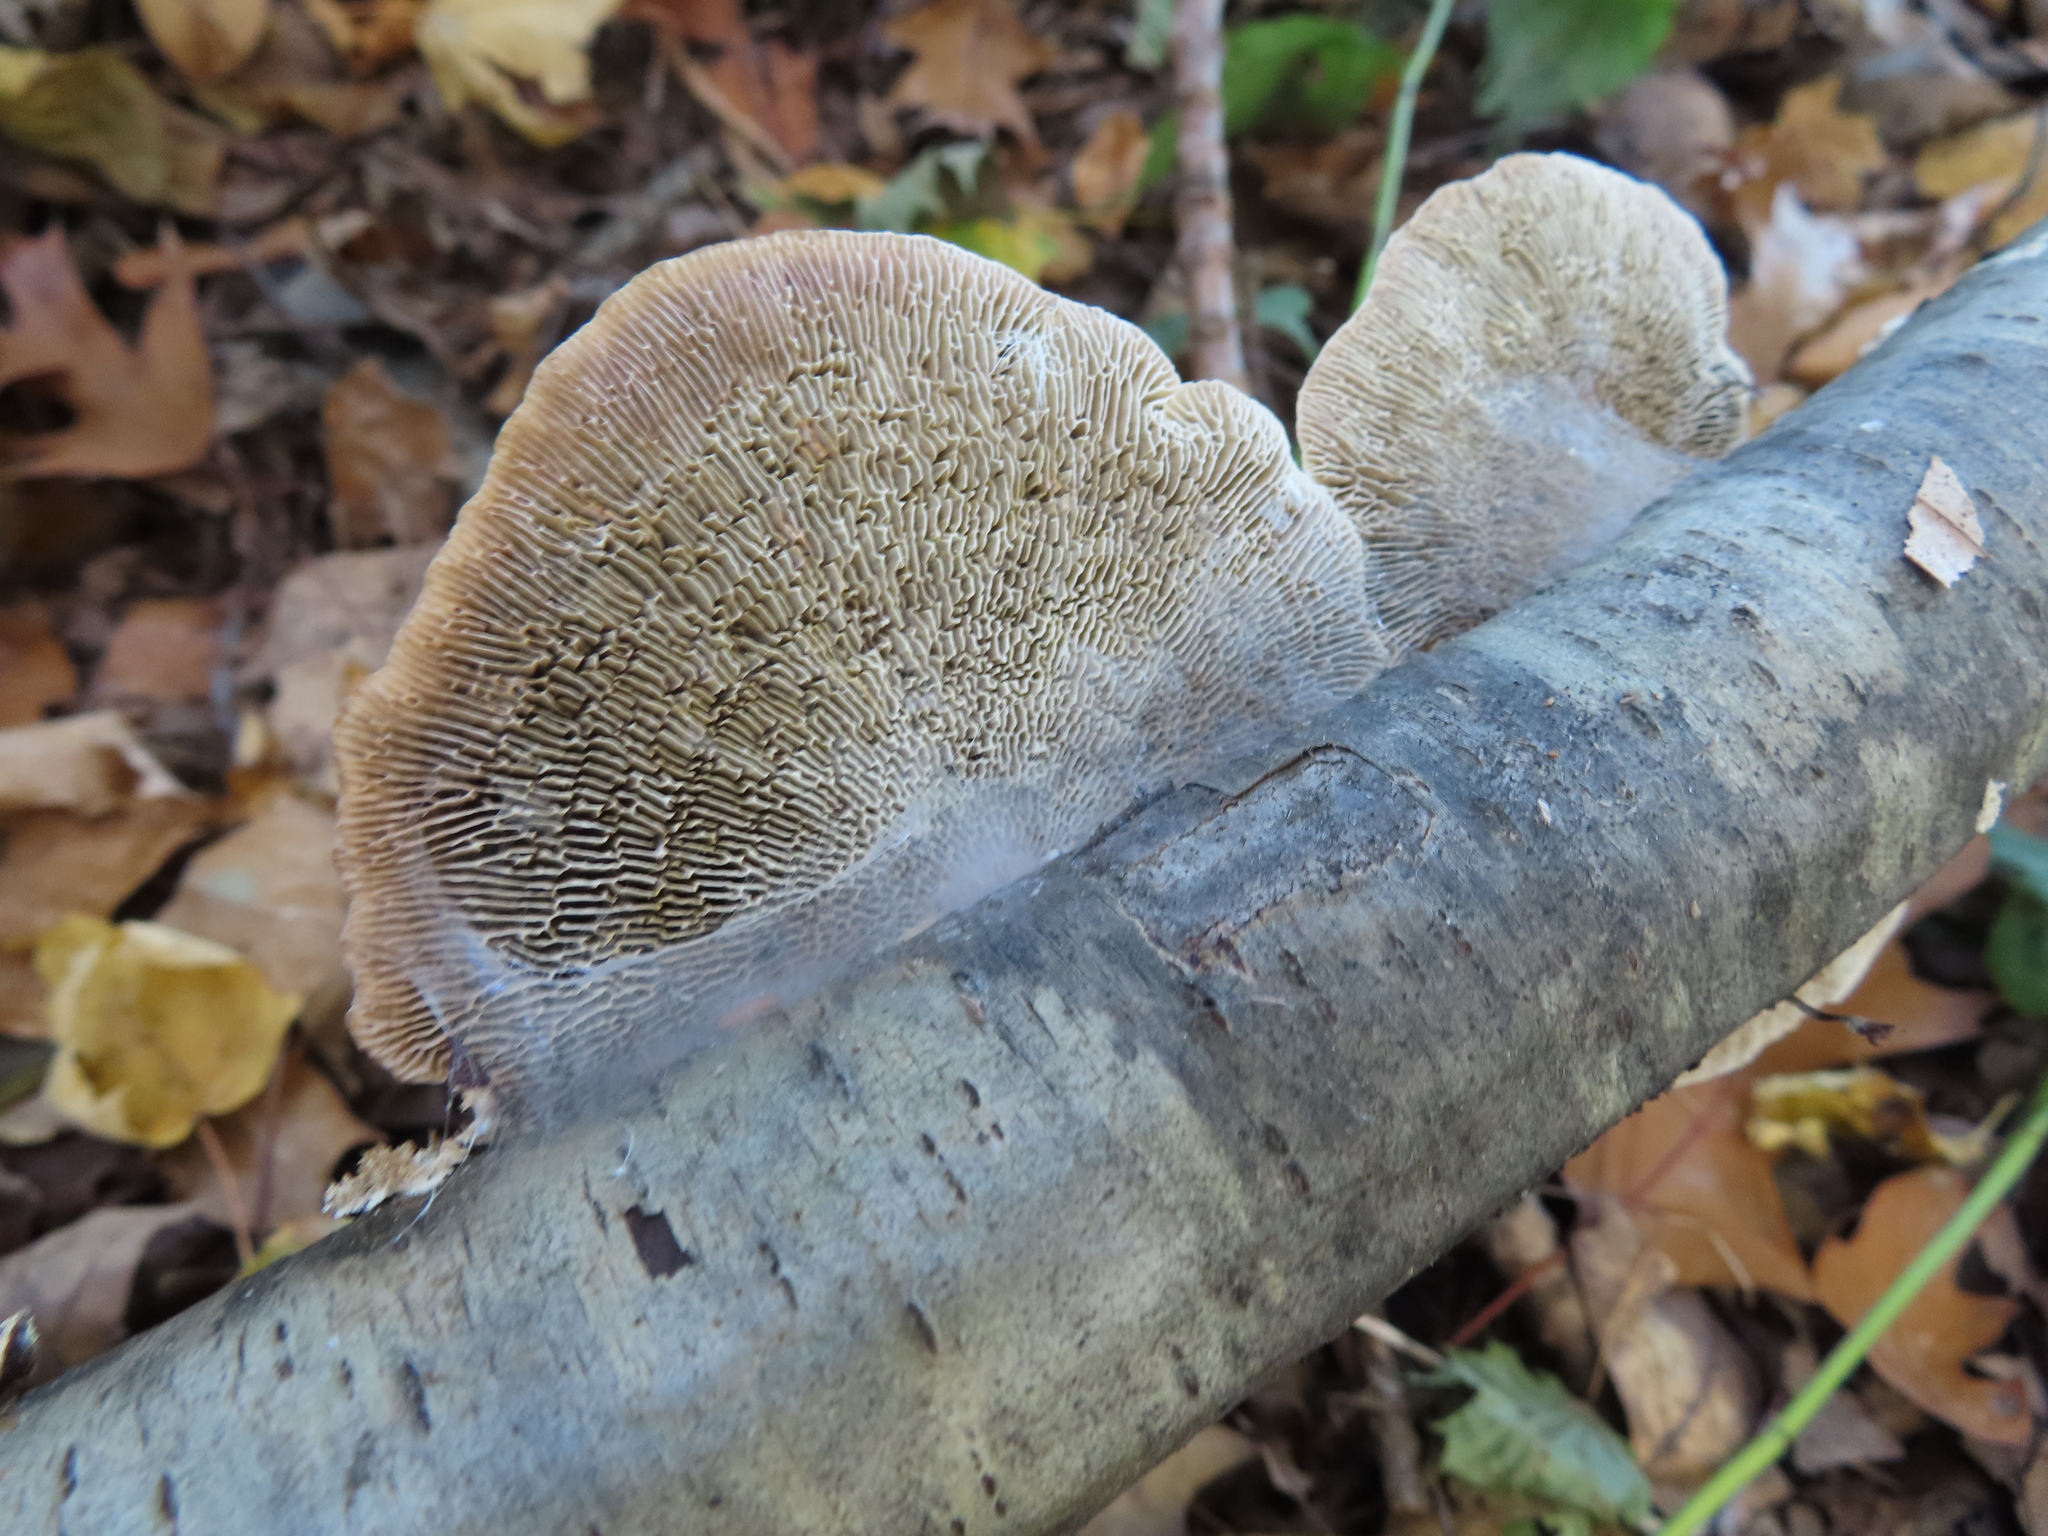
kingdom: Fungi
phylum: Basidiomycota
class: Agaricomycetes
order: Polyporales
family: Polyporaceae
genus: Daedaleopsis
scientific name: Daedaleopsis confragosa
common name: Blushing bracket
